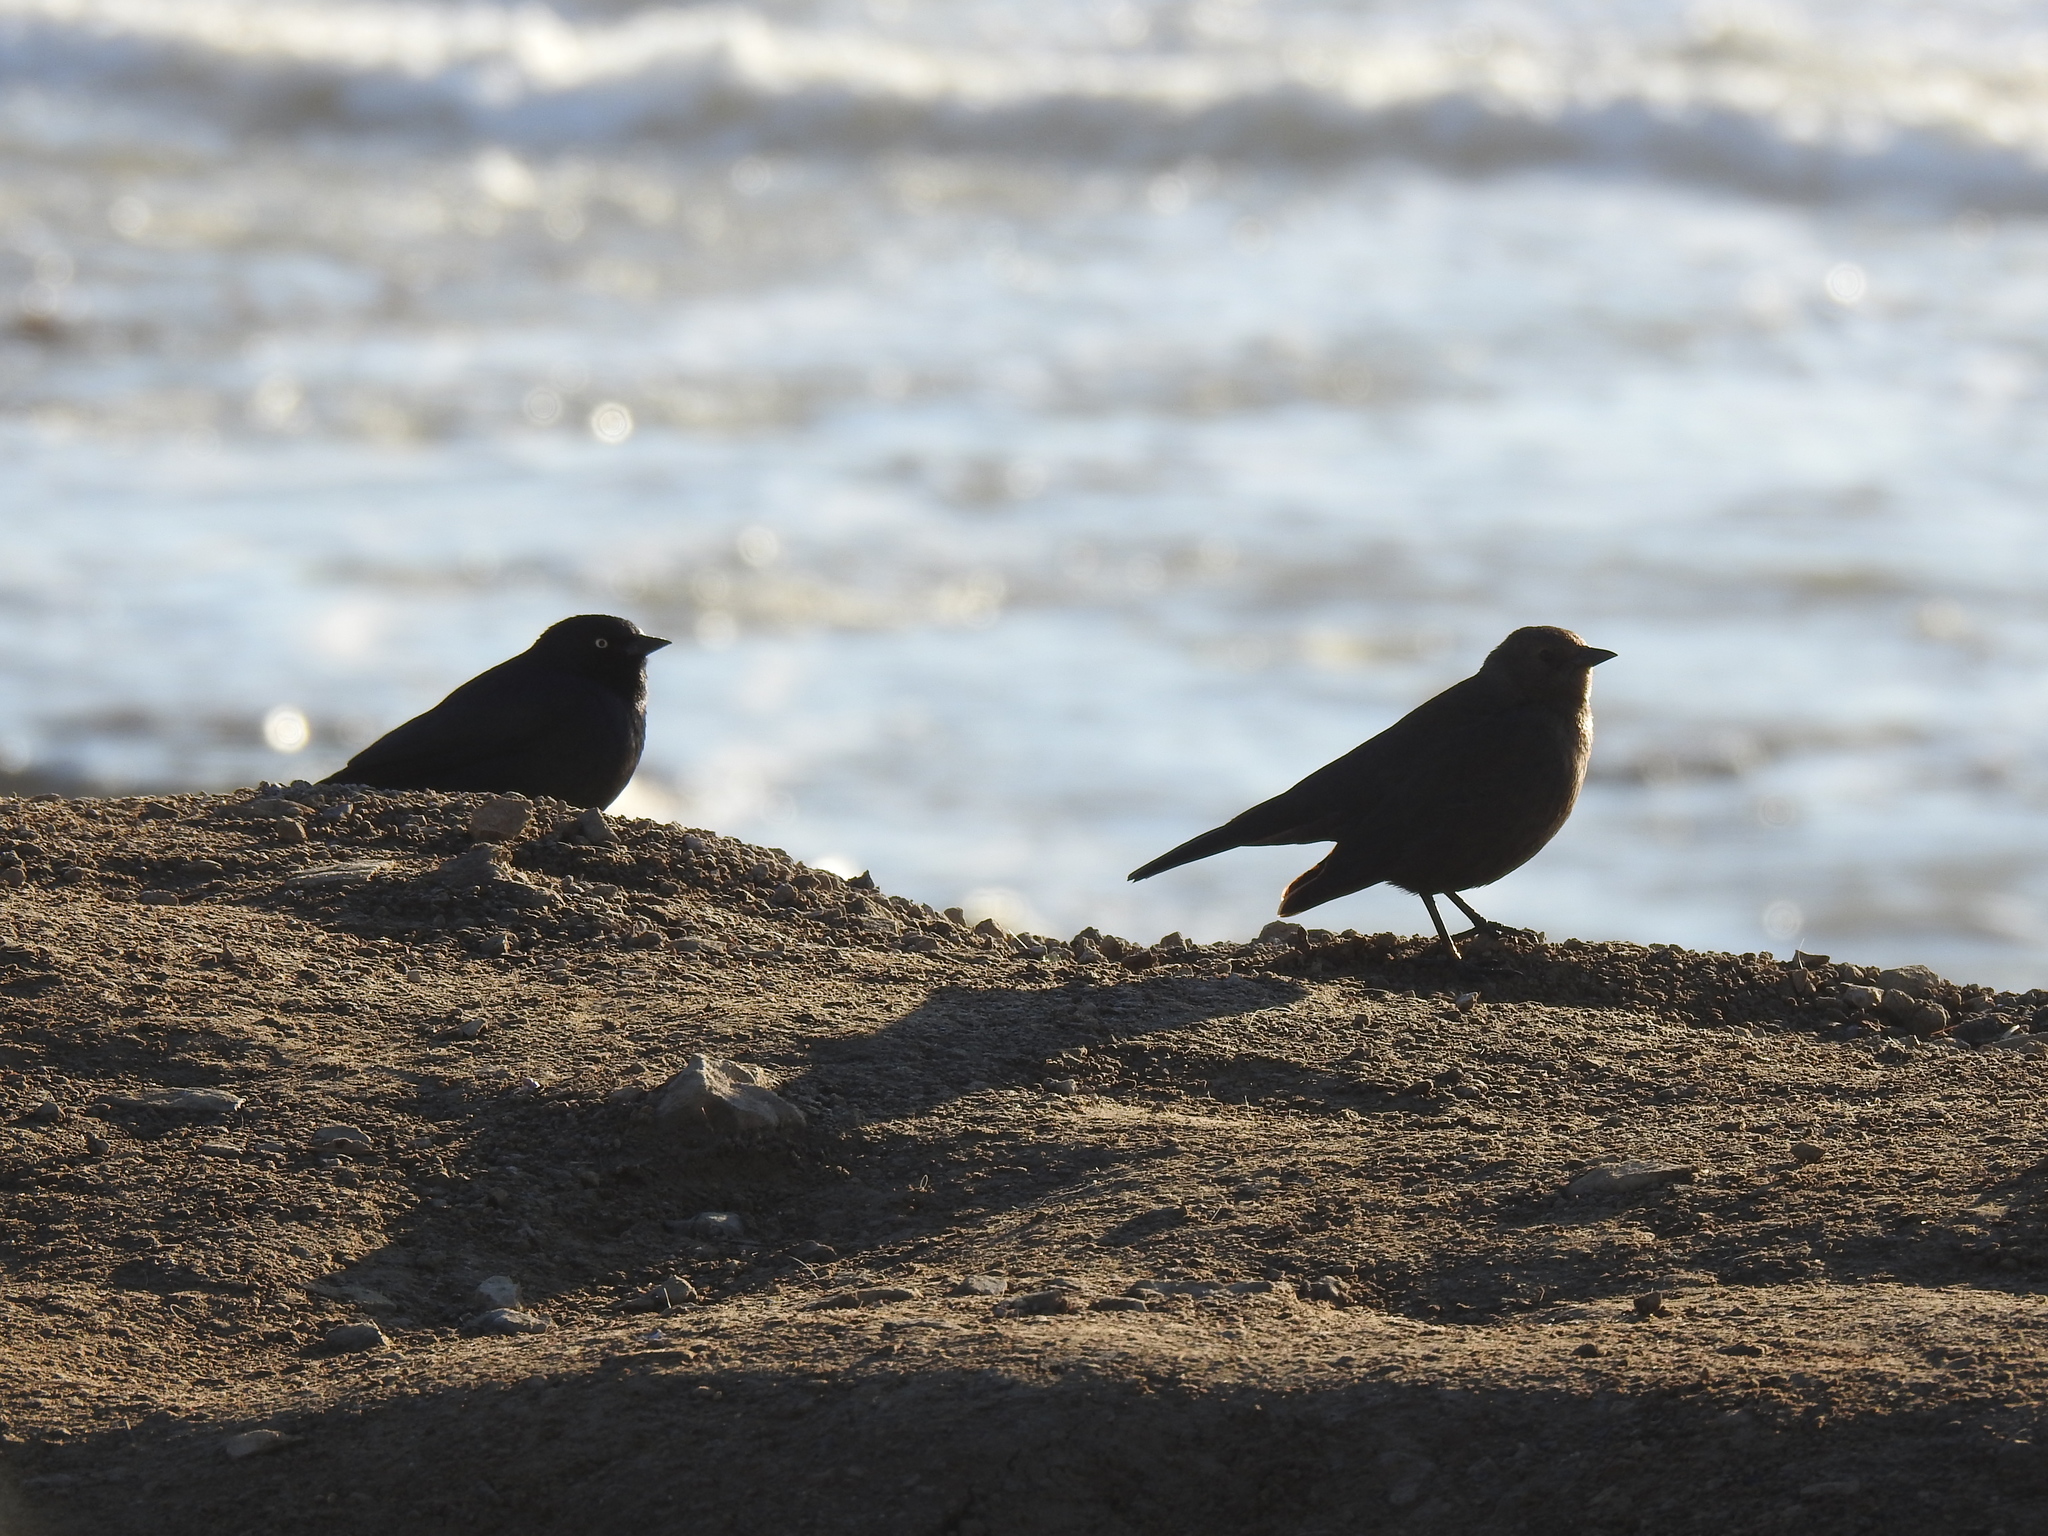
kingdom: Animalia
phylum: Chordata
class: Aves
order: Passeriformes
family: Icteridae
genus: Euphagus
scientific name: Euphagus cyanocephalus
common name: Brewer's blackbird
